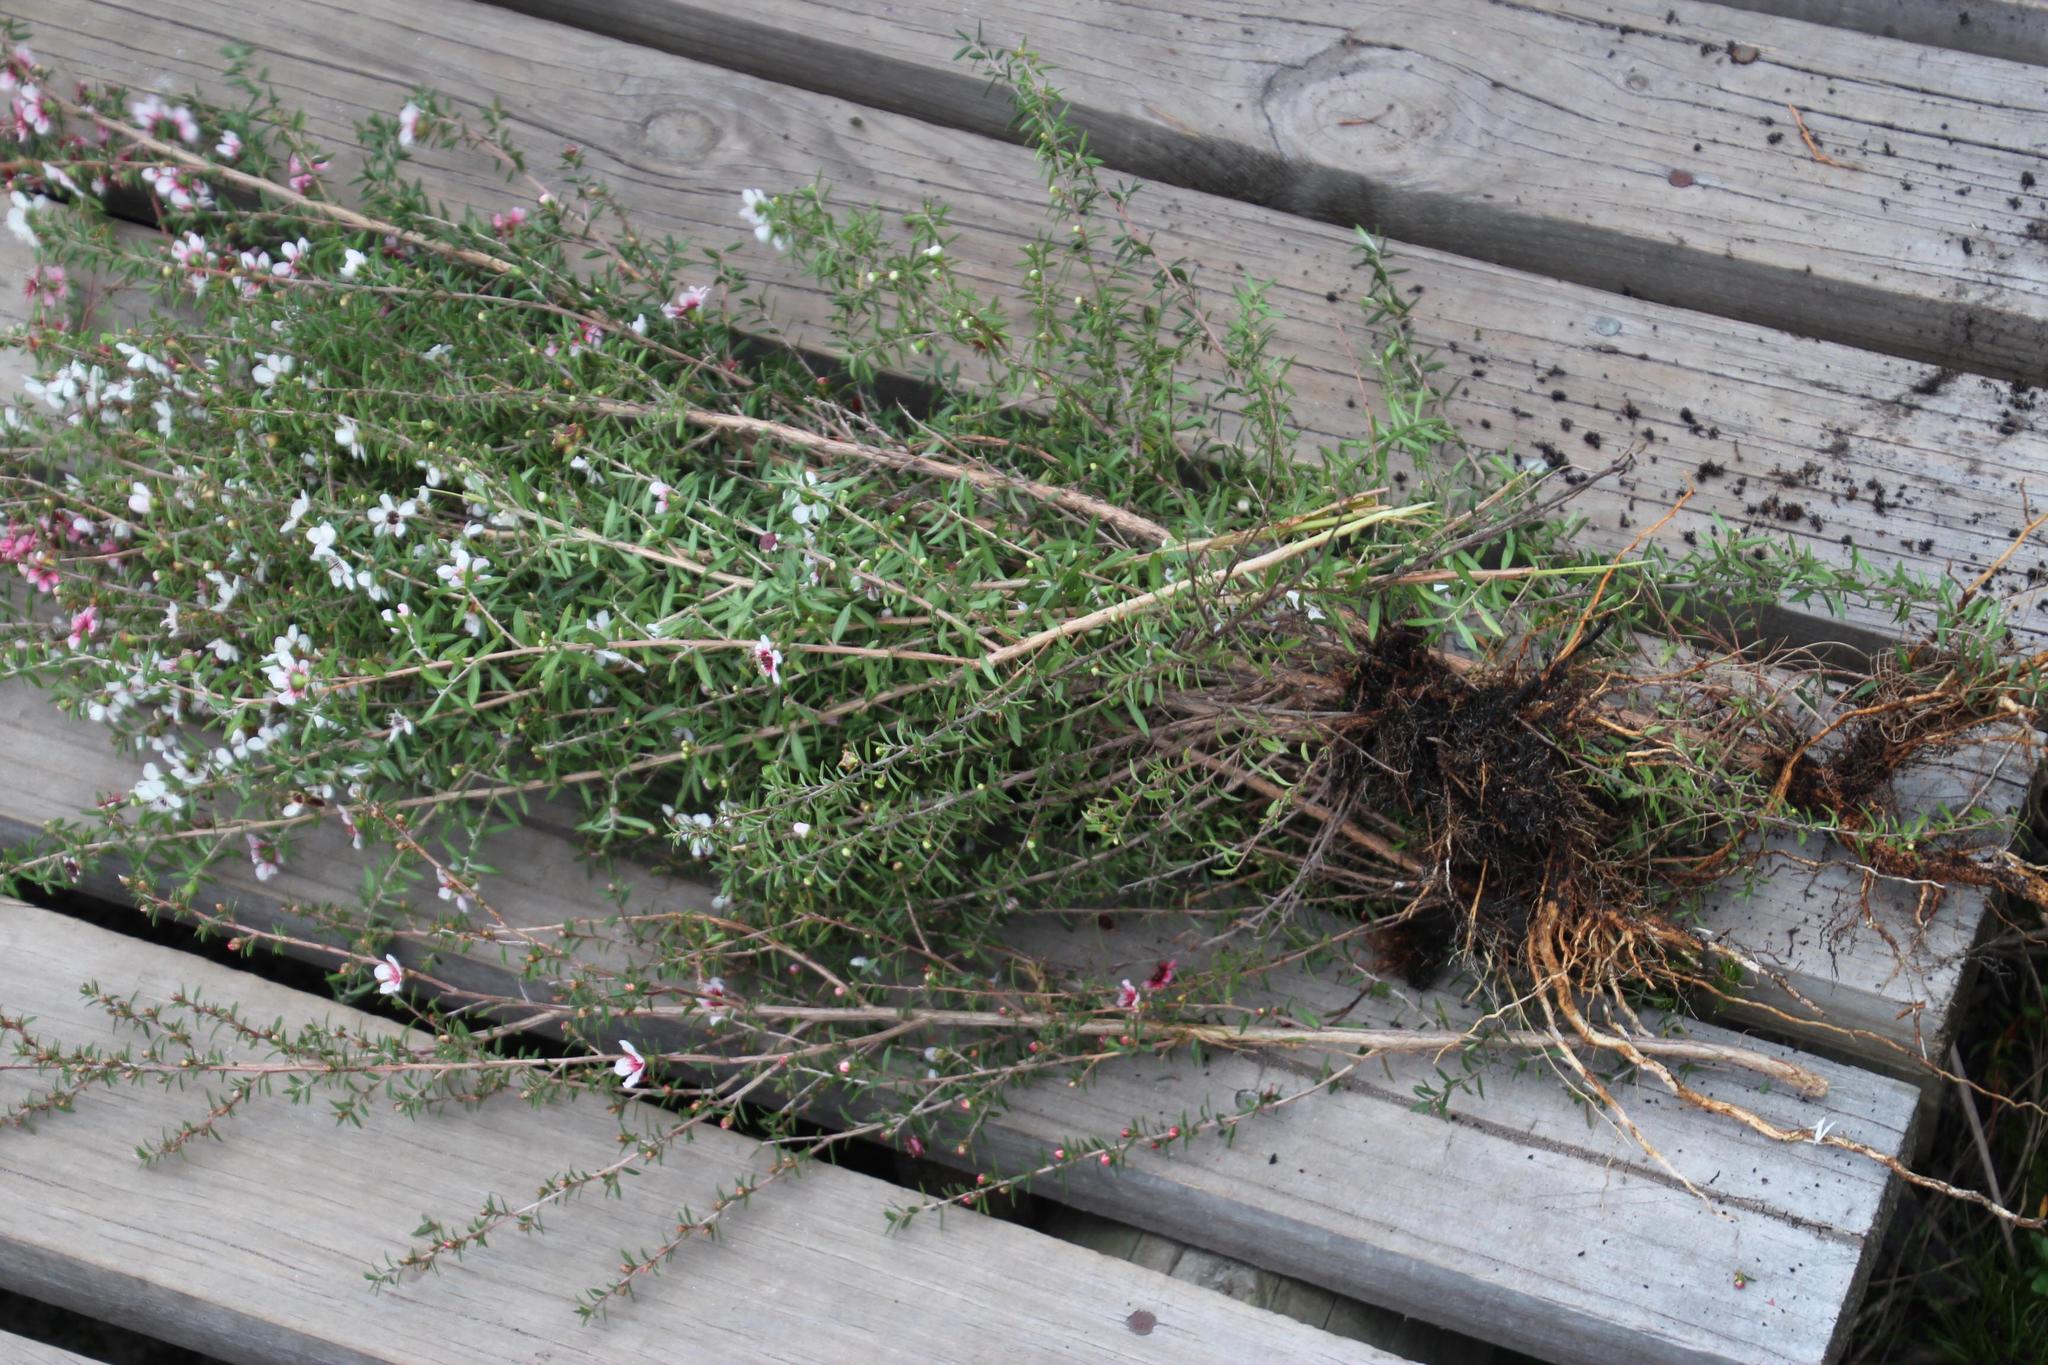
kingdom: Plantae
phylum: Tracheophyta
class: Magnoliopsida
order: Myrtales
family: Myrtaceae
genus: Leptospermum
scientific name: Leptospermum scoparium
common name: Broom tea-tree
